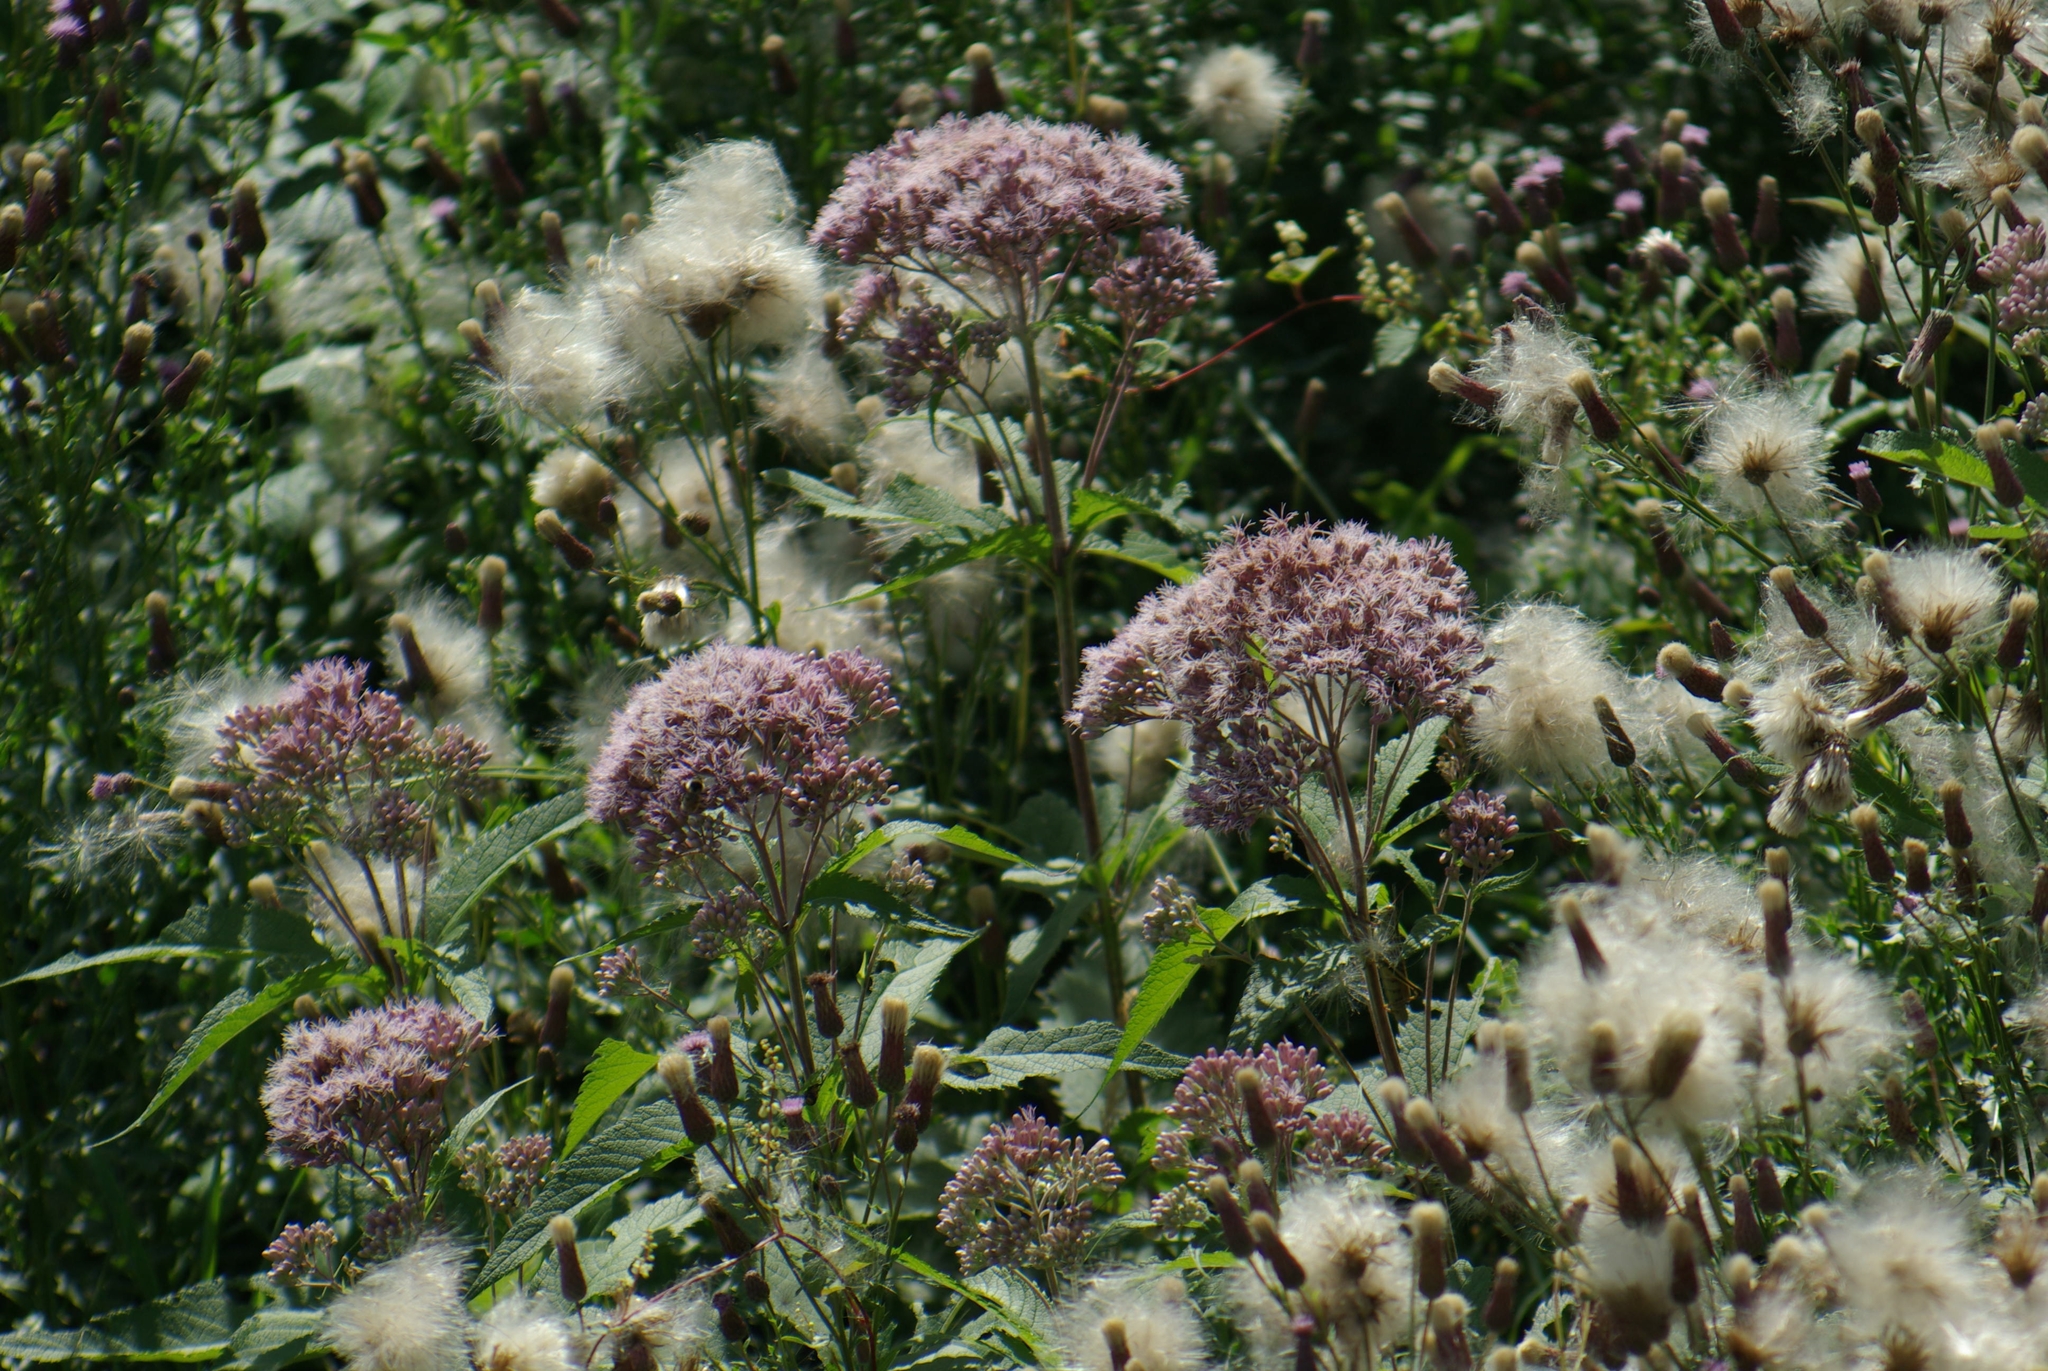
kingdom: Plantae
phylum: Tracheophyta
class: Magnoliopsida
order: Asterales
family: Asteraceae
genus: Cirsium
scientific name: Cirsium arvense
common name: Creeping thistle
